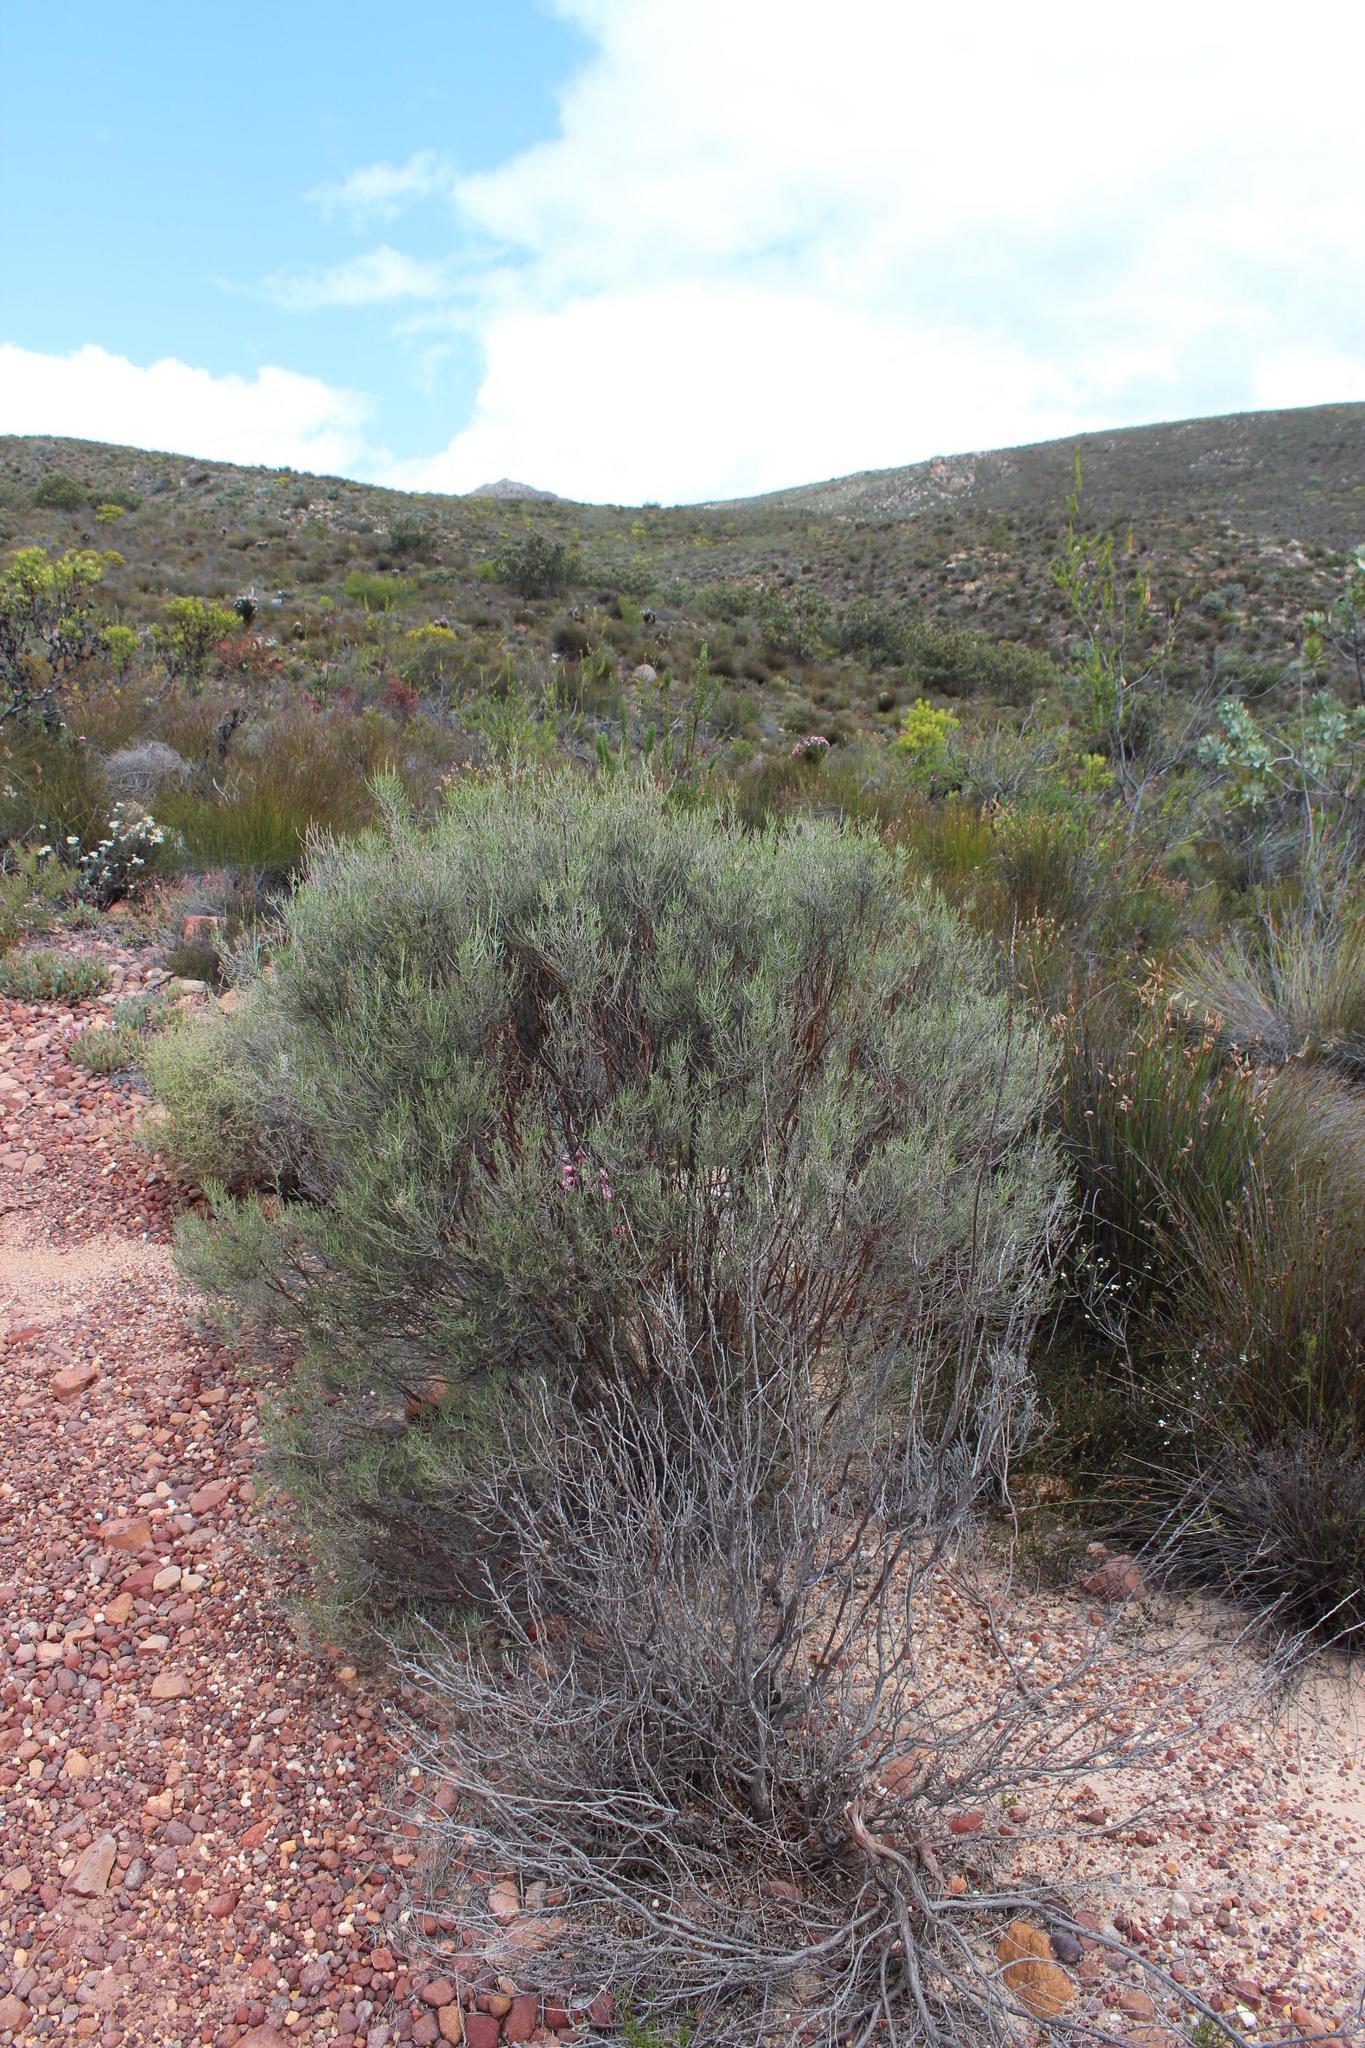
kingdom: Plantae
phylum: Tracheophyta
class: Magnoliopsida
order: Asterales
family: Asteraceae
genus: Dicerothamnus
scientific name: Dicerothamnus rhinocerotis
